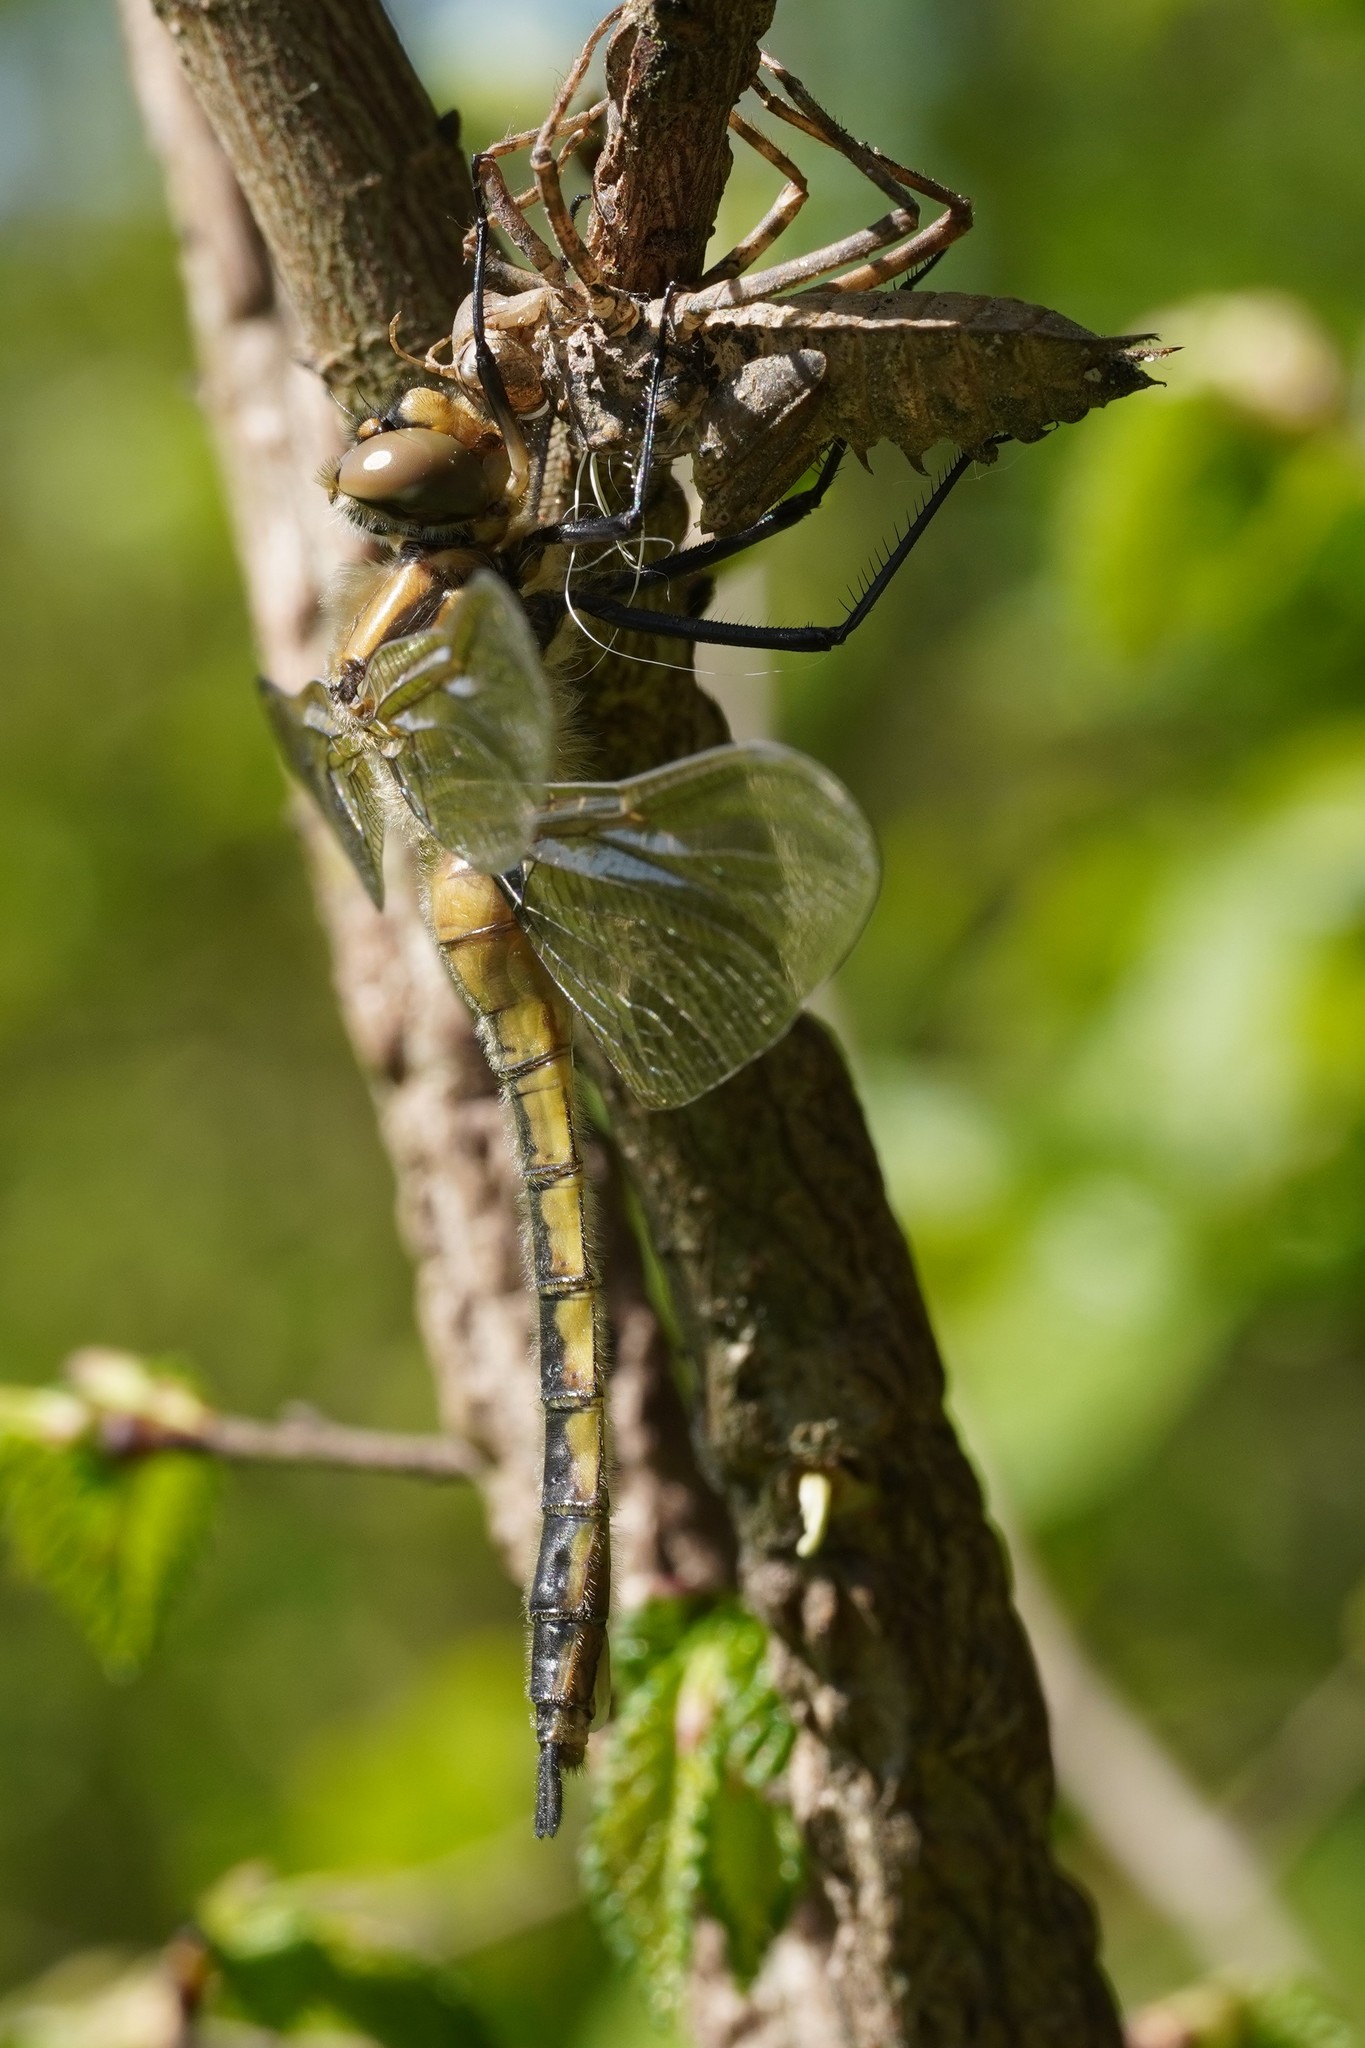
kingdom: Animalia
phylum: Arthropoda
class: Insecta
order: Odonata
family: Corduliidae
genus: Epitheca
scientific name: Epitheca bimaculata
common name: Eurasian baskettail
